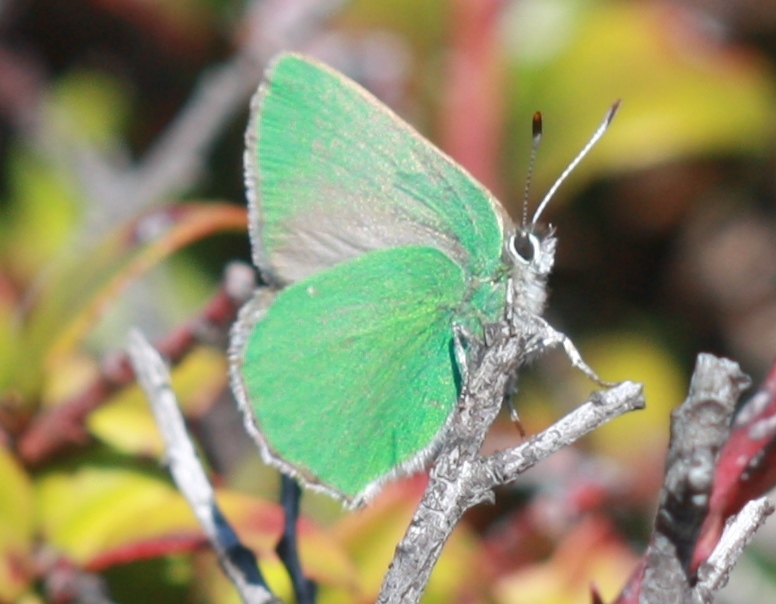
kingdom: Animalia
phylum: Arthropoda
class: Insecta
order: Lepidoptera
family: Lycaenidae
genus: Callophrys
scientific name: Callophrys viridis
